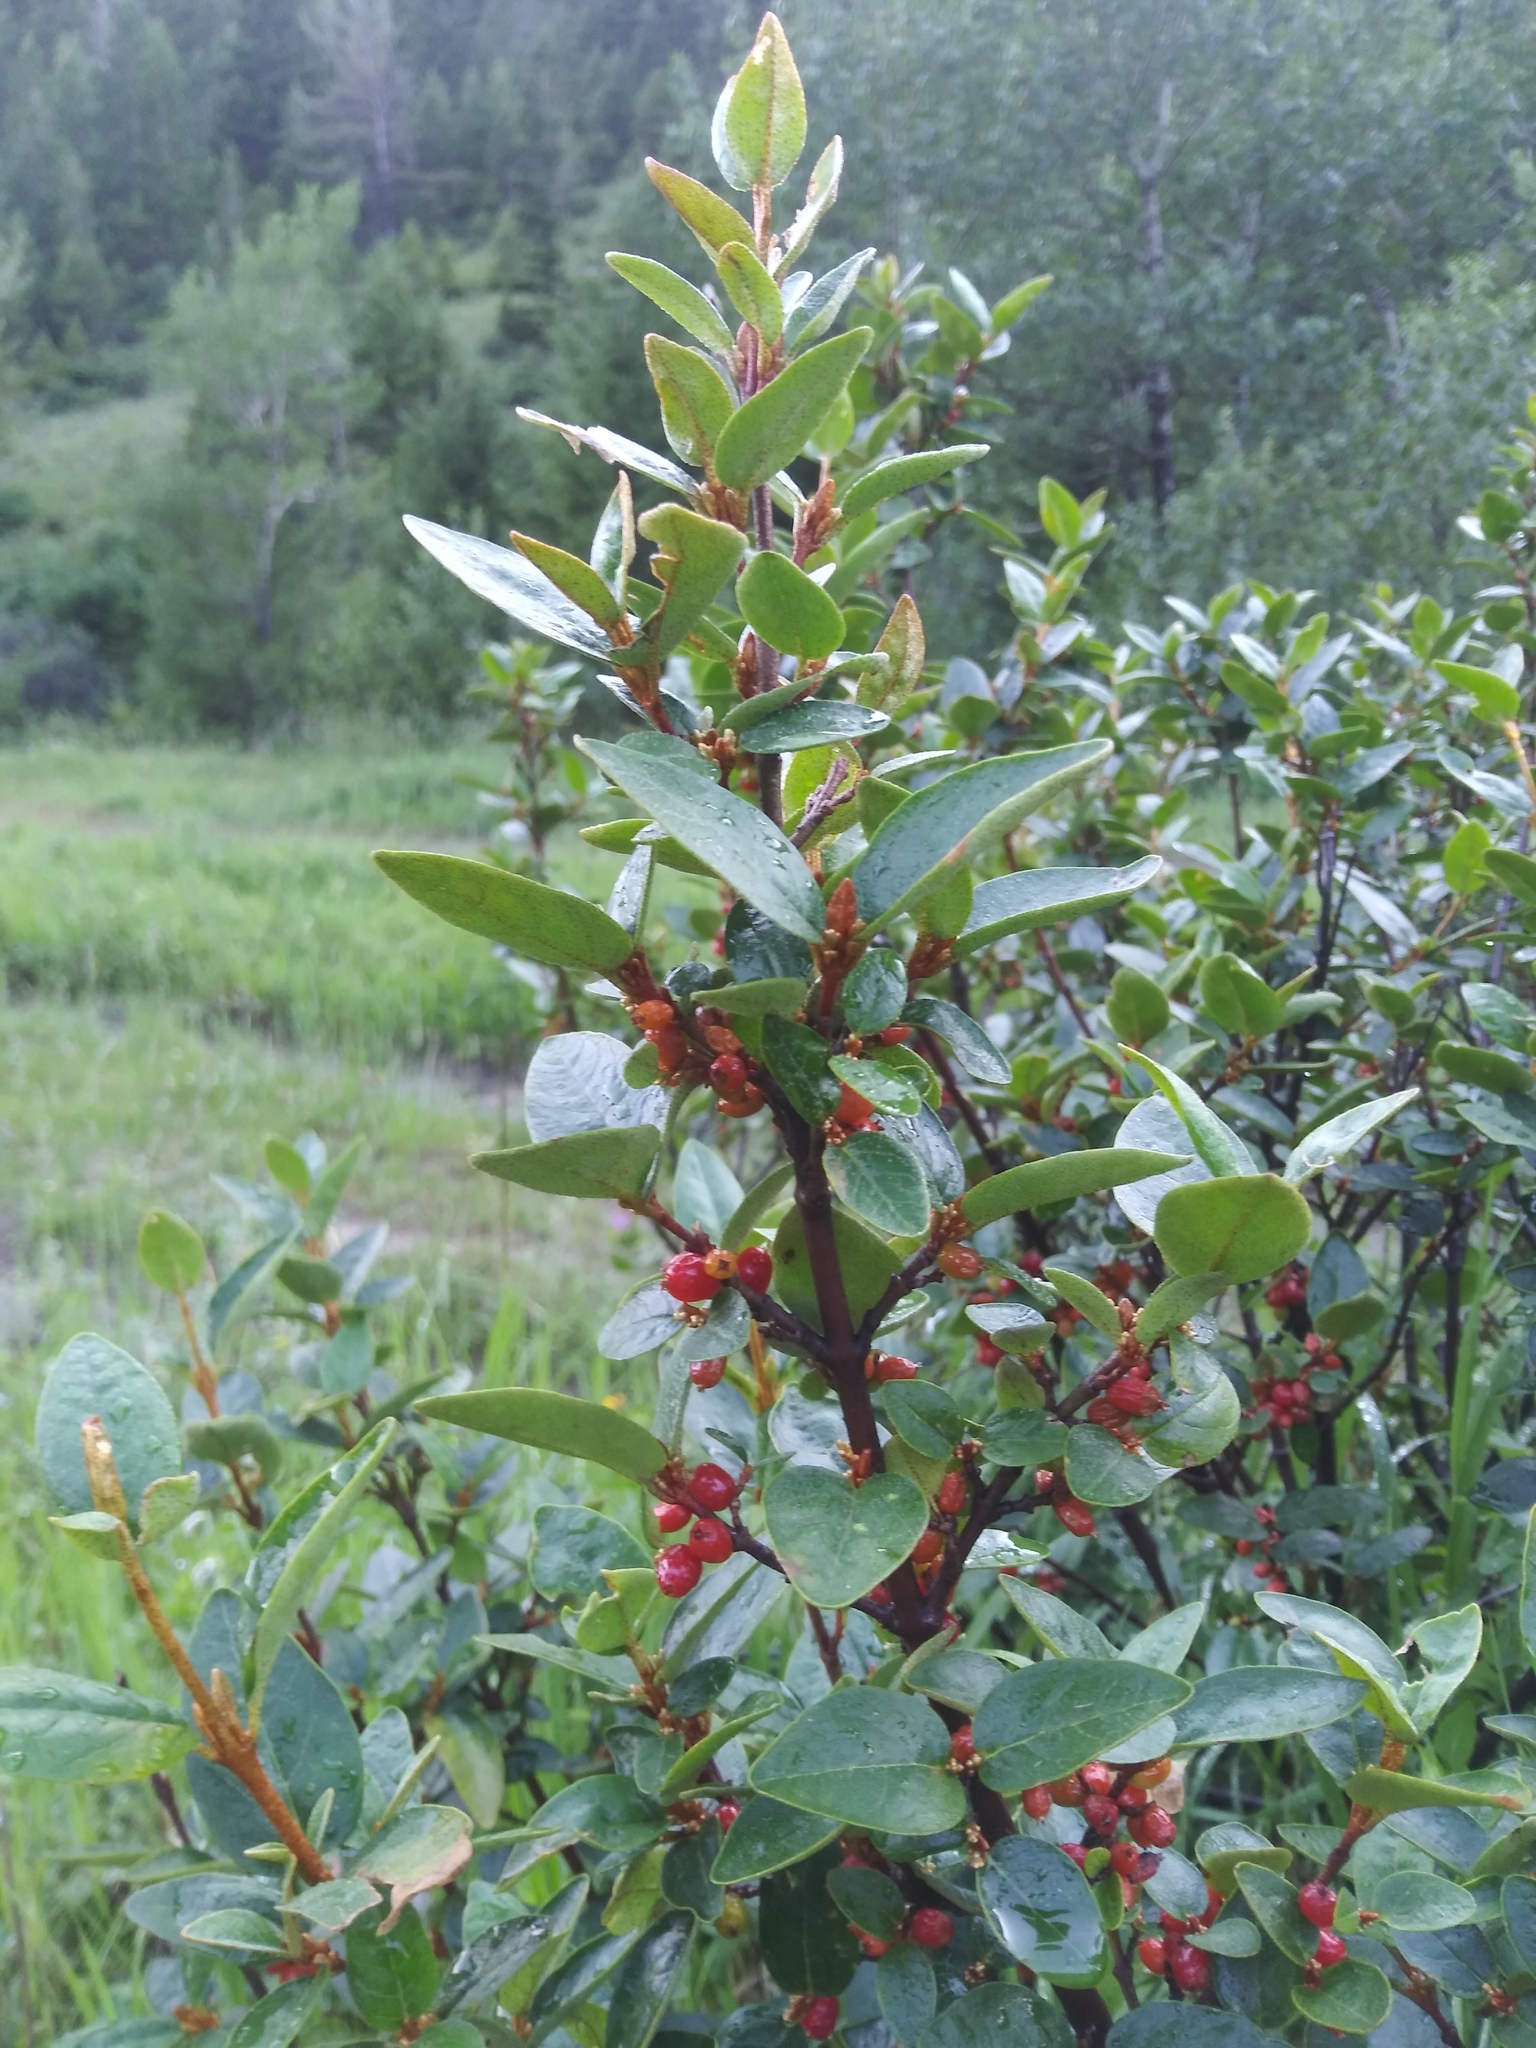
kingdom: Plantae
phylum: Tracheophyta
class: Magnoliopsida
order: Rosales
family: Elaeagnaceae
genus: Shepherdia
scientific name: Shepherdia canadensis
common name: Soapberry
